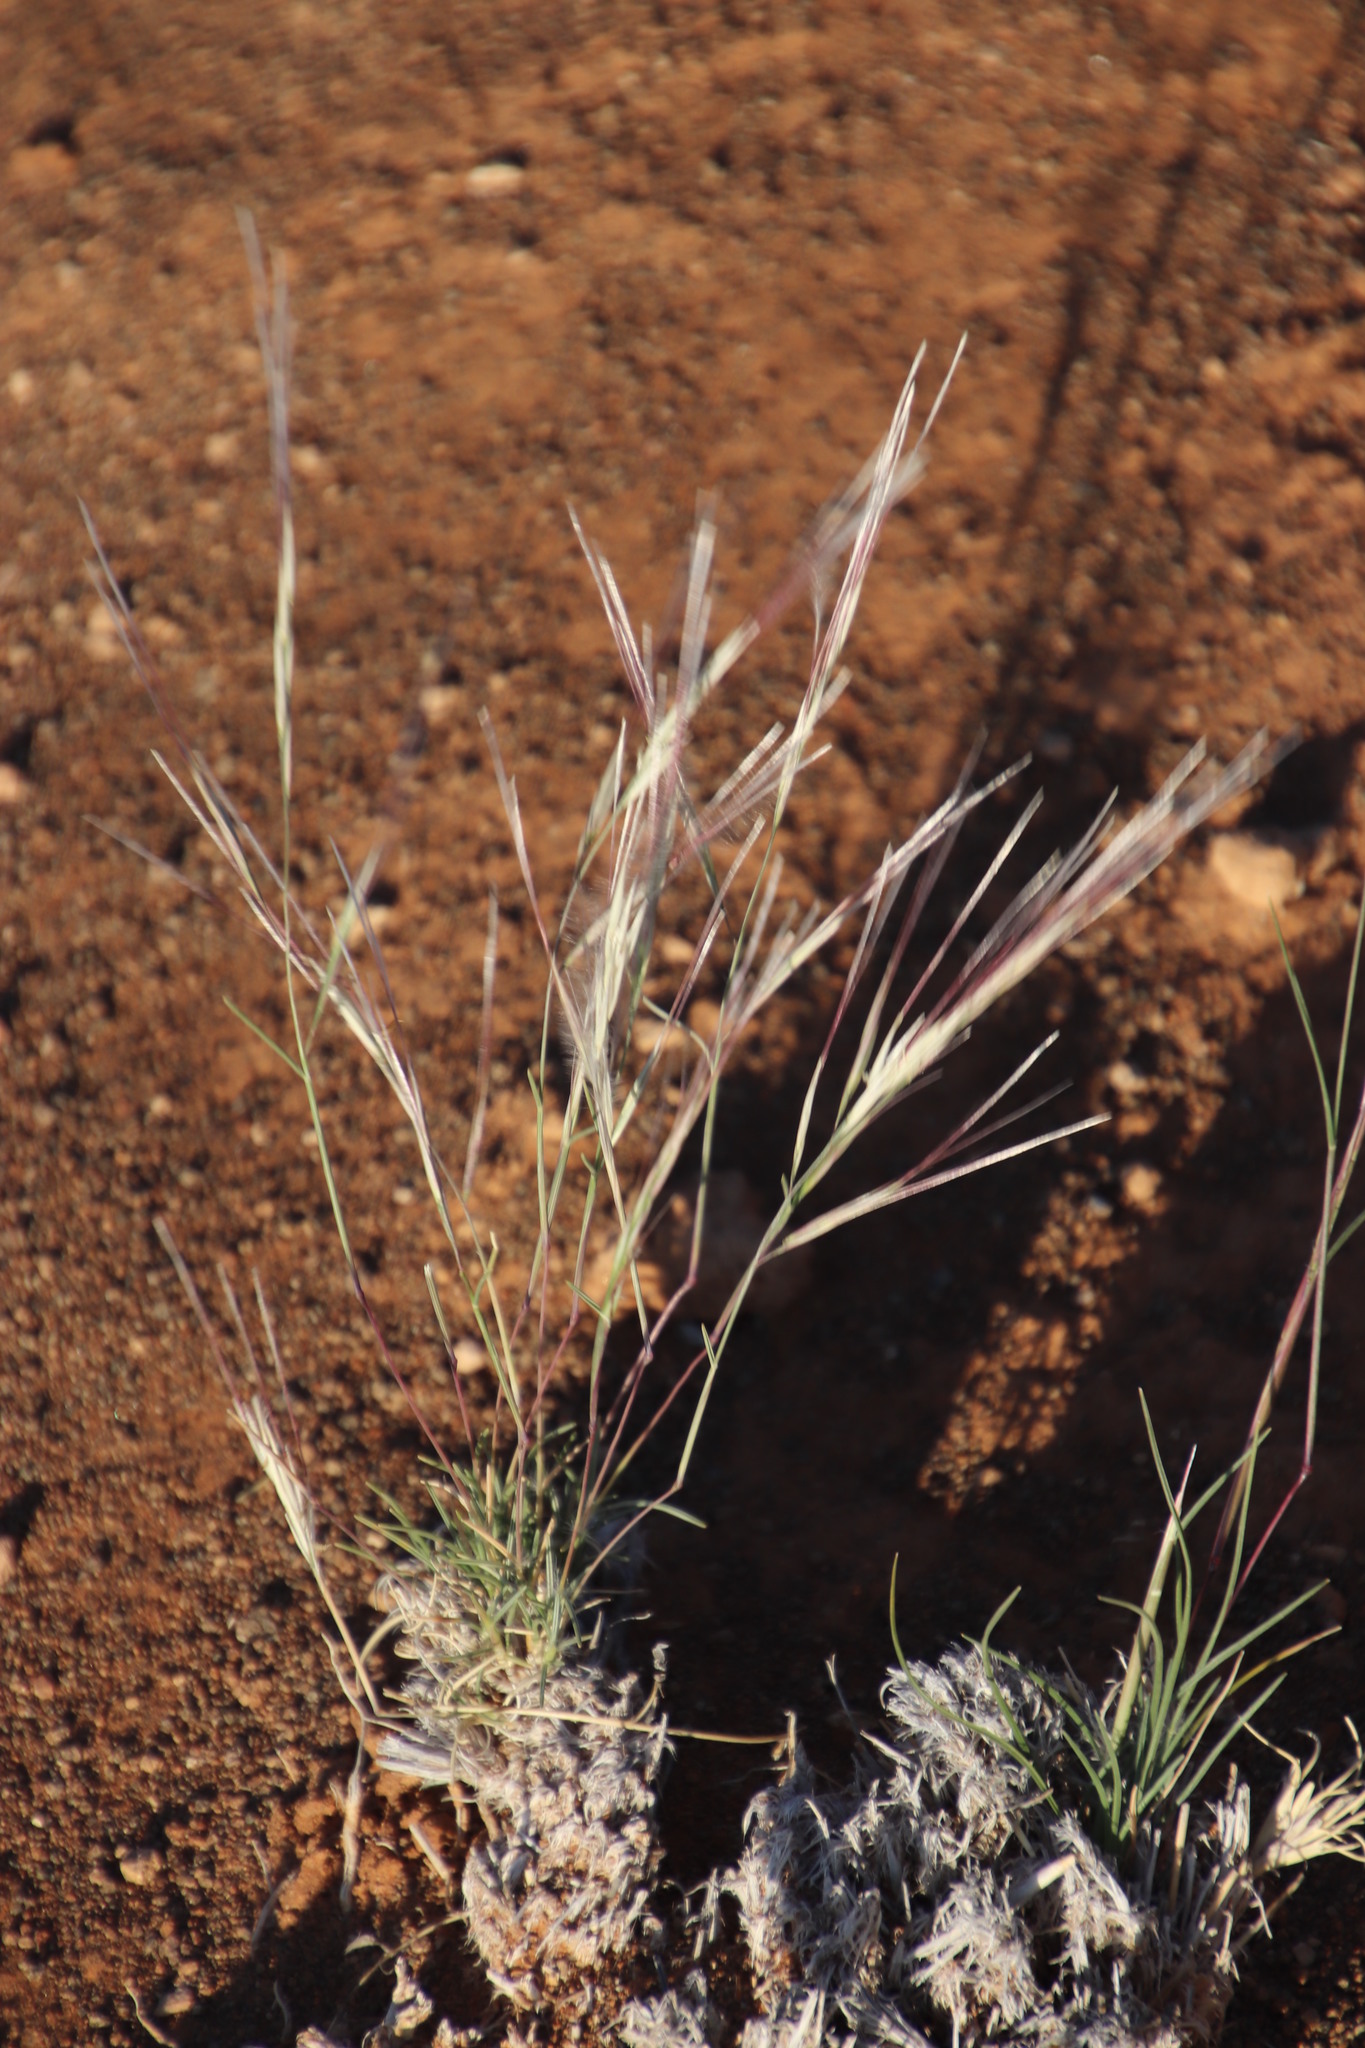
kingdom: Plantae
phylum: Tracheophyta
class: Liliopsida
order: Poales
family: Poaceae
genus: Stipagrostis
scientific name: Stipagrostis obtusa
